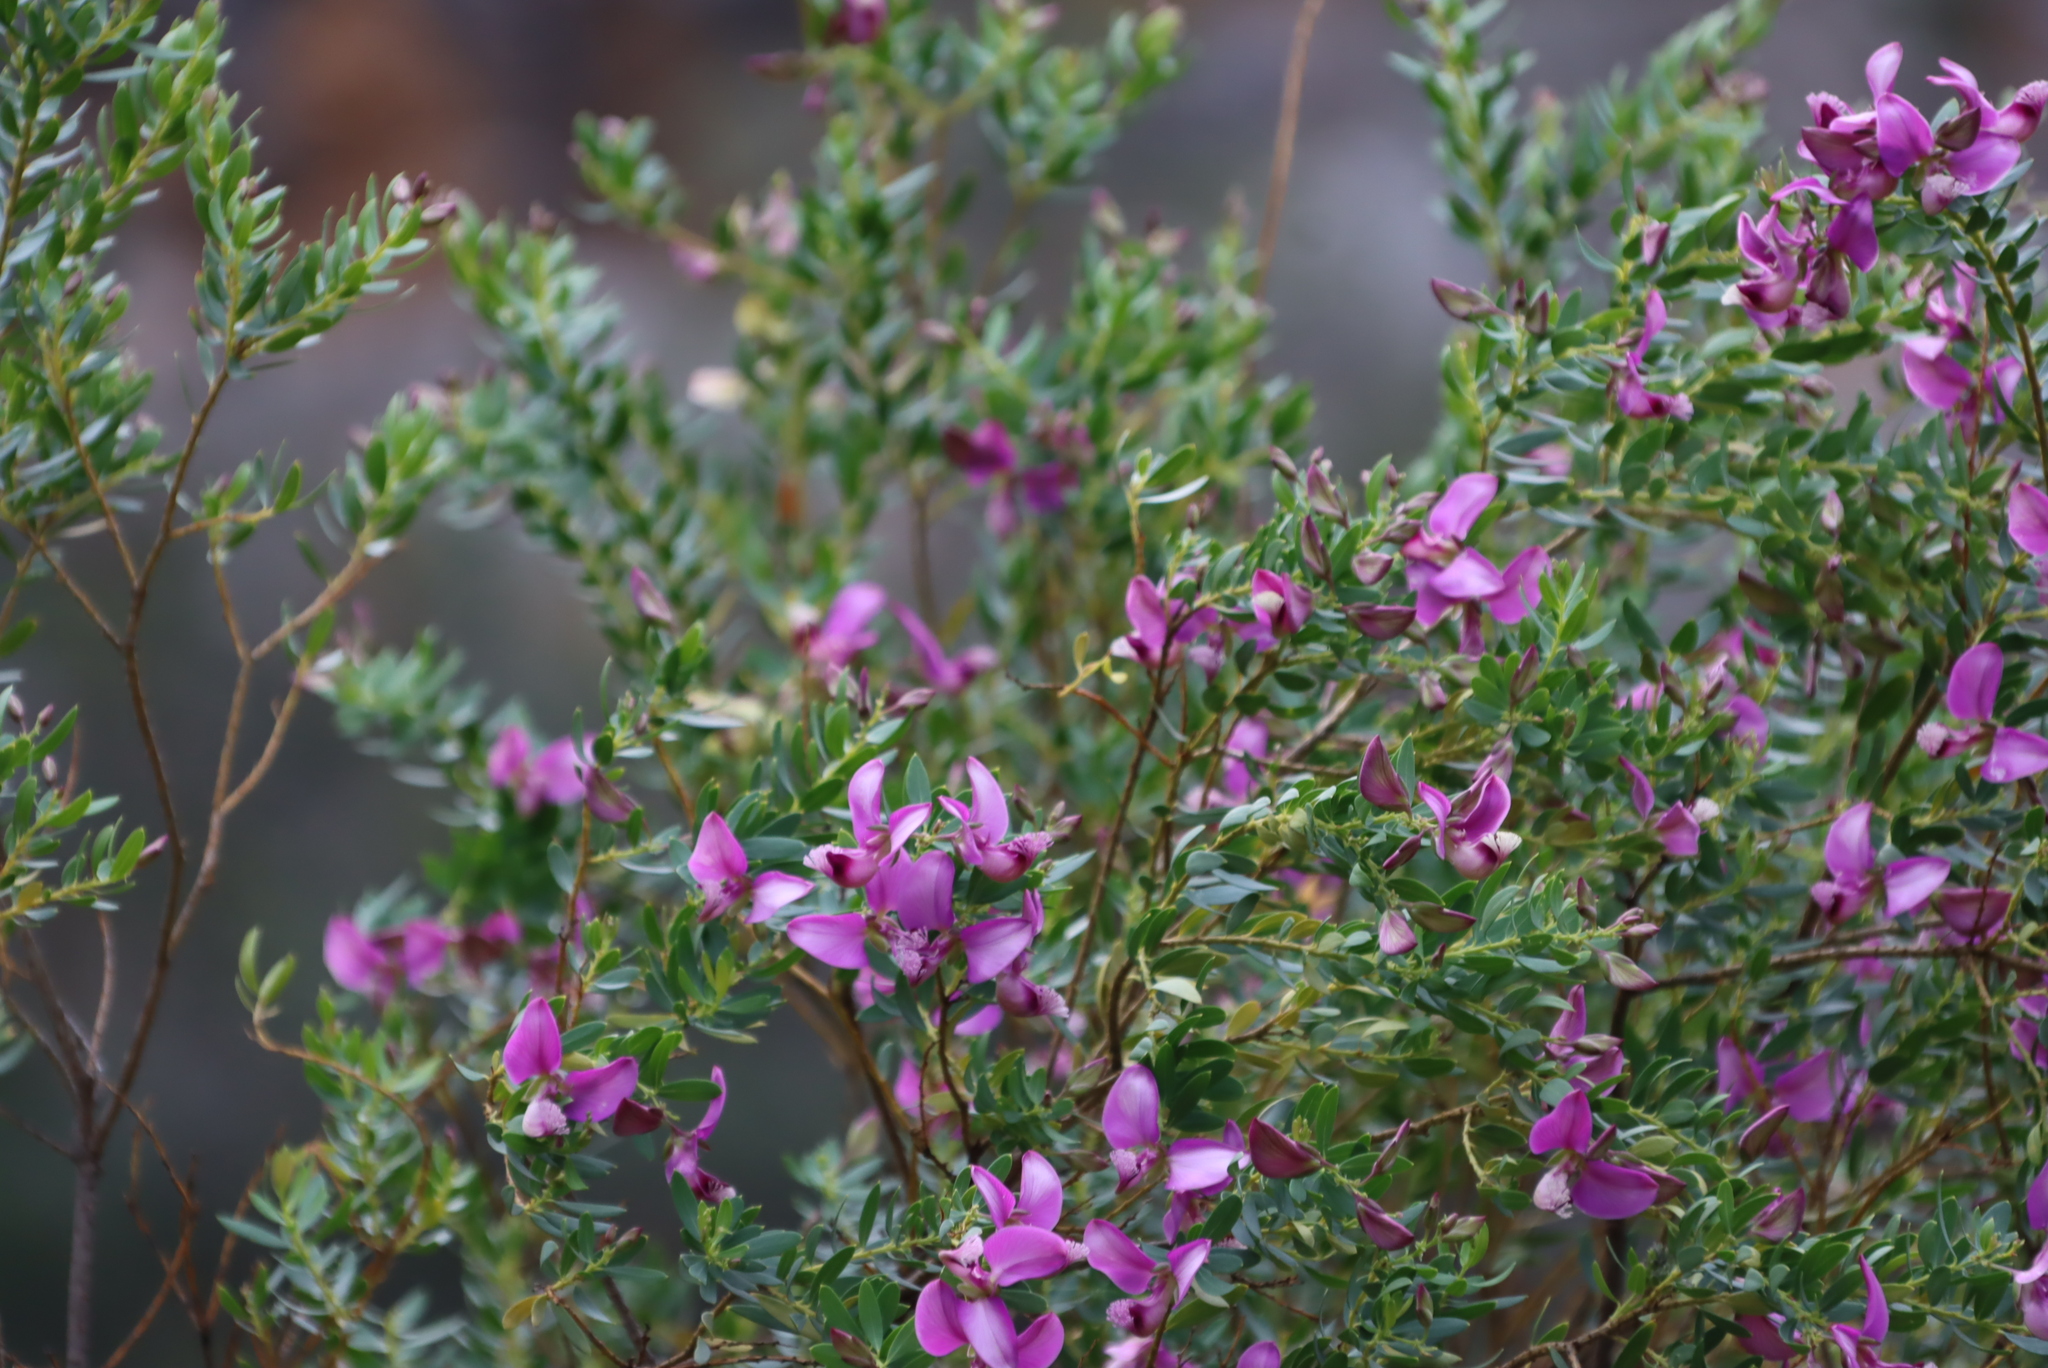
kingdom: Plantae
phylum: Tracheophyta
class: Magnoliopsida
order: Fabales
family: Polygalaceae
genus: Polygala
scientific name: Polygala myrtifolia
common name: Myrtle-leaf milkwort
